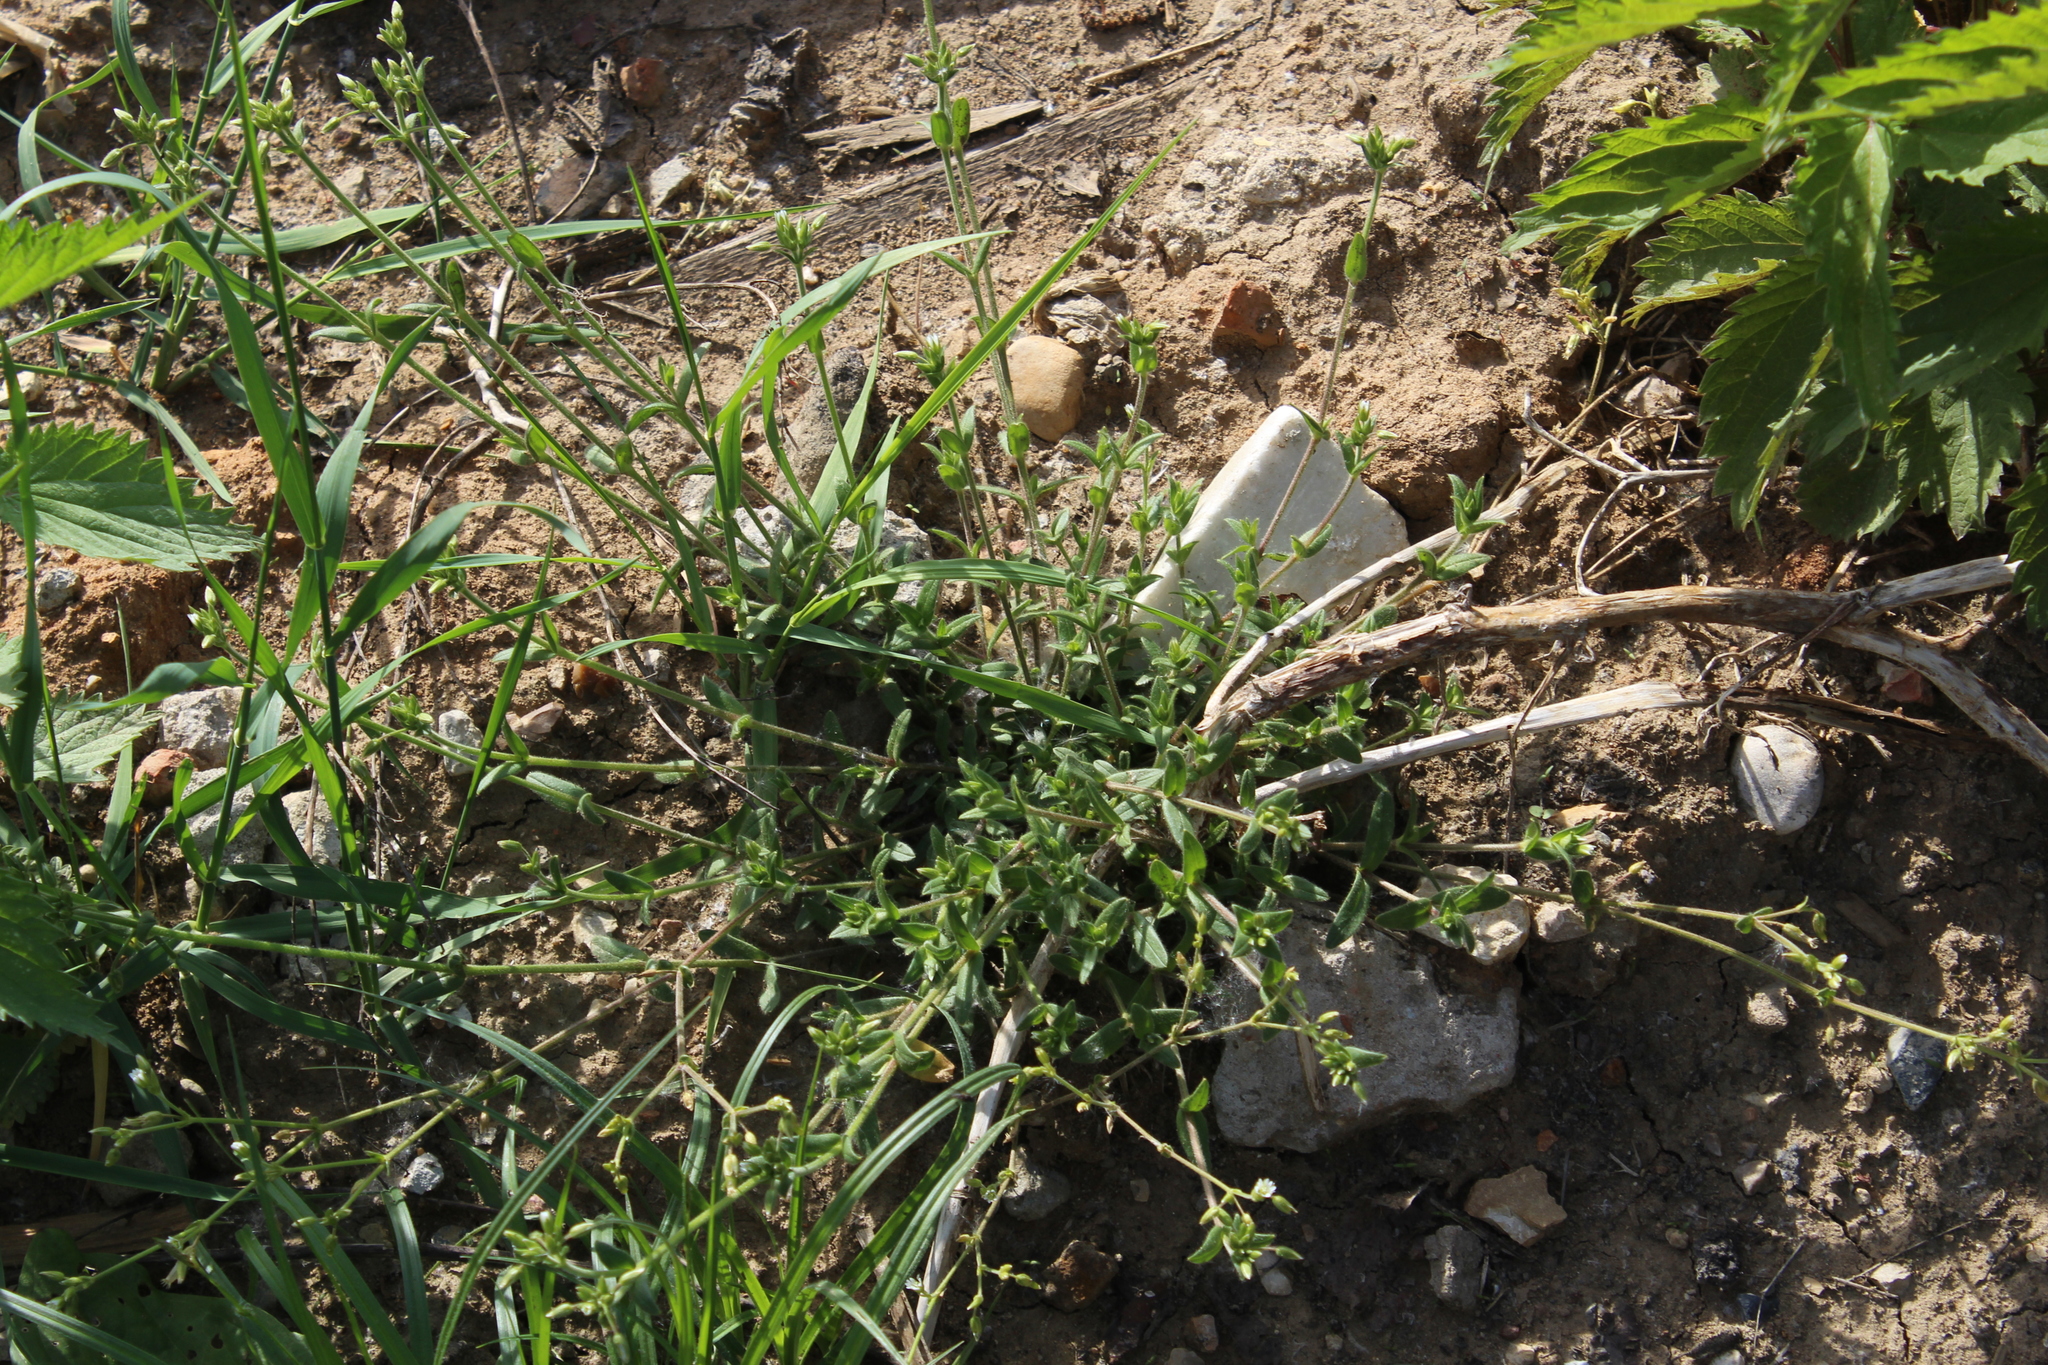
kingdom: Plantae
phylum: Tracheophyta
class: Magnoliopsida
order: Caryophyllales
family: Caryophyllaceae
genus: Cerastium
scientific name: Cerastium holosteoides
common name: Big chickweed
